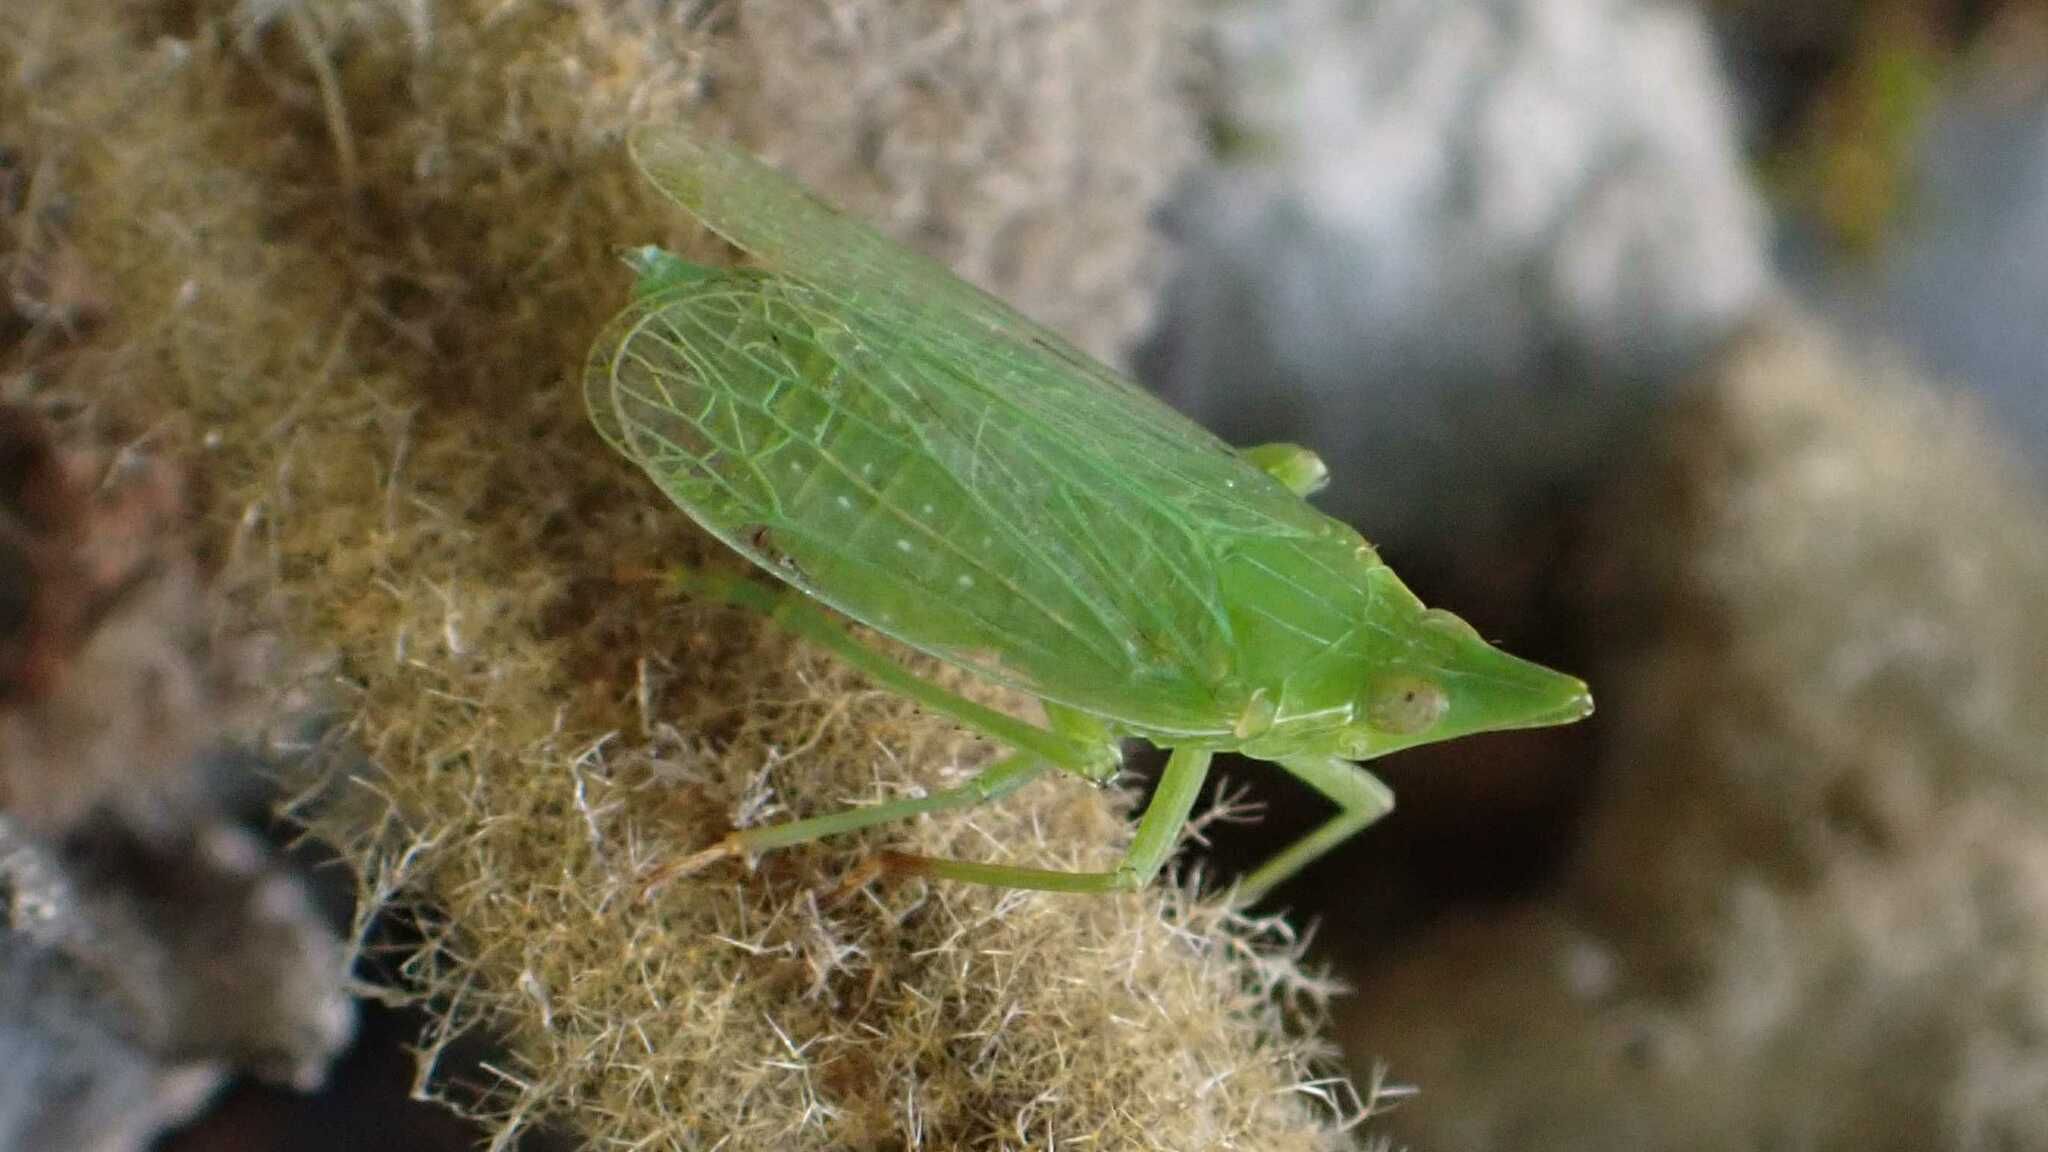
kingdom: Animalia
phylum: Arthropoda
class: Insecta
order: Hemiptera
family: Dictyopharidae
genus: Dictyophara
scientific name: Dictyophara europaea
